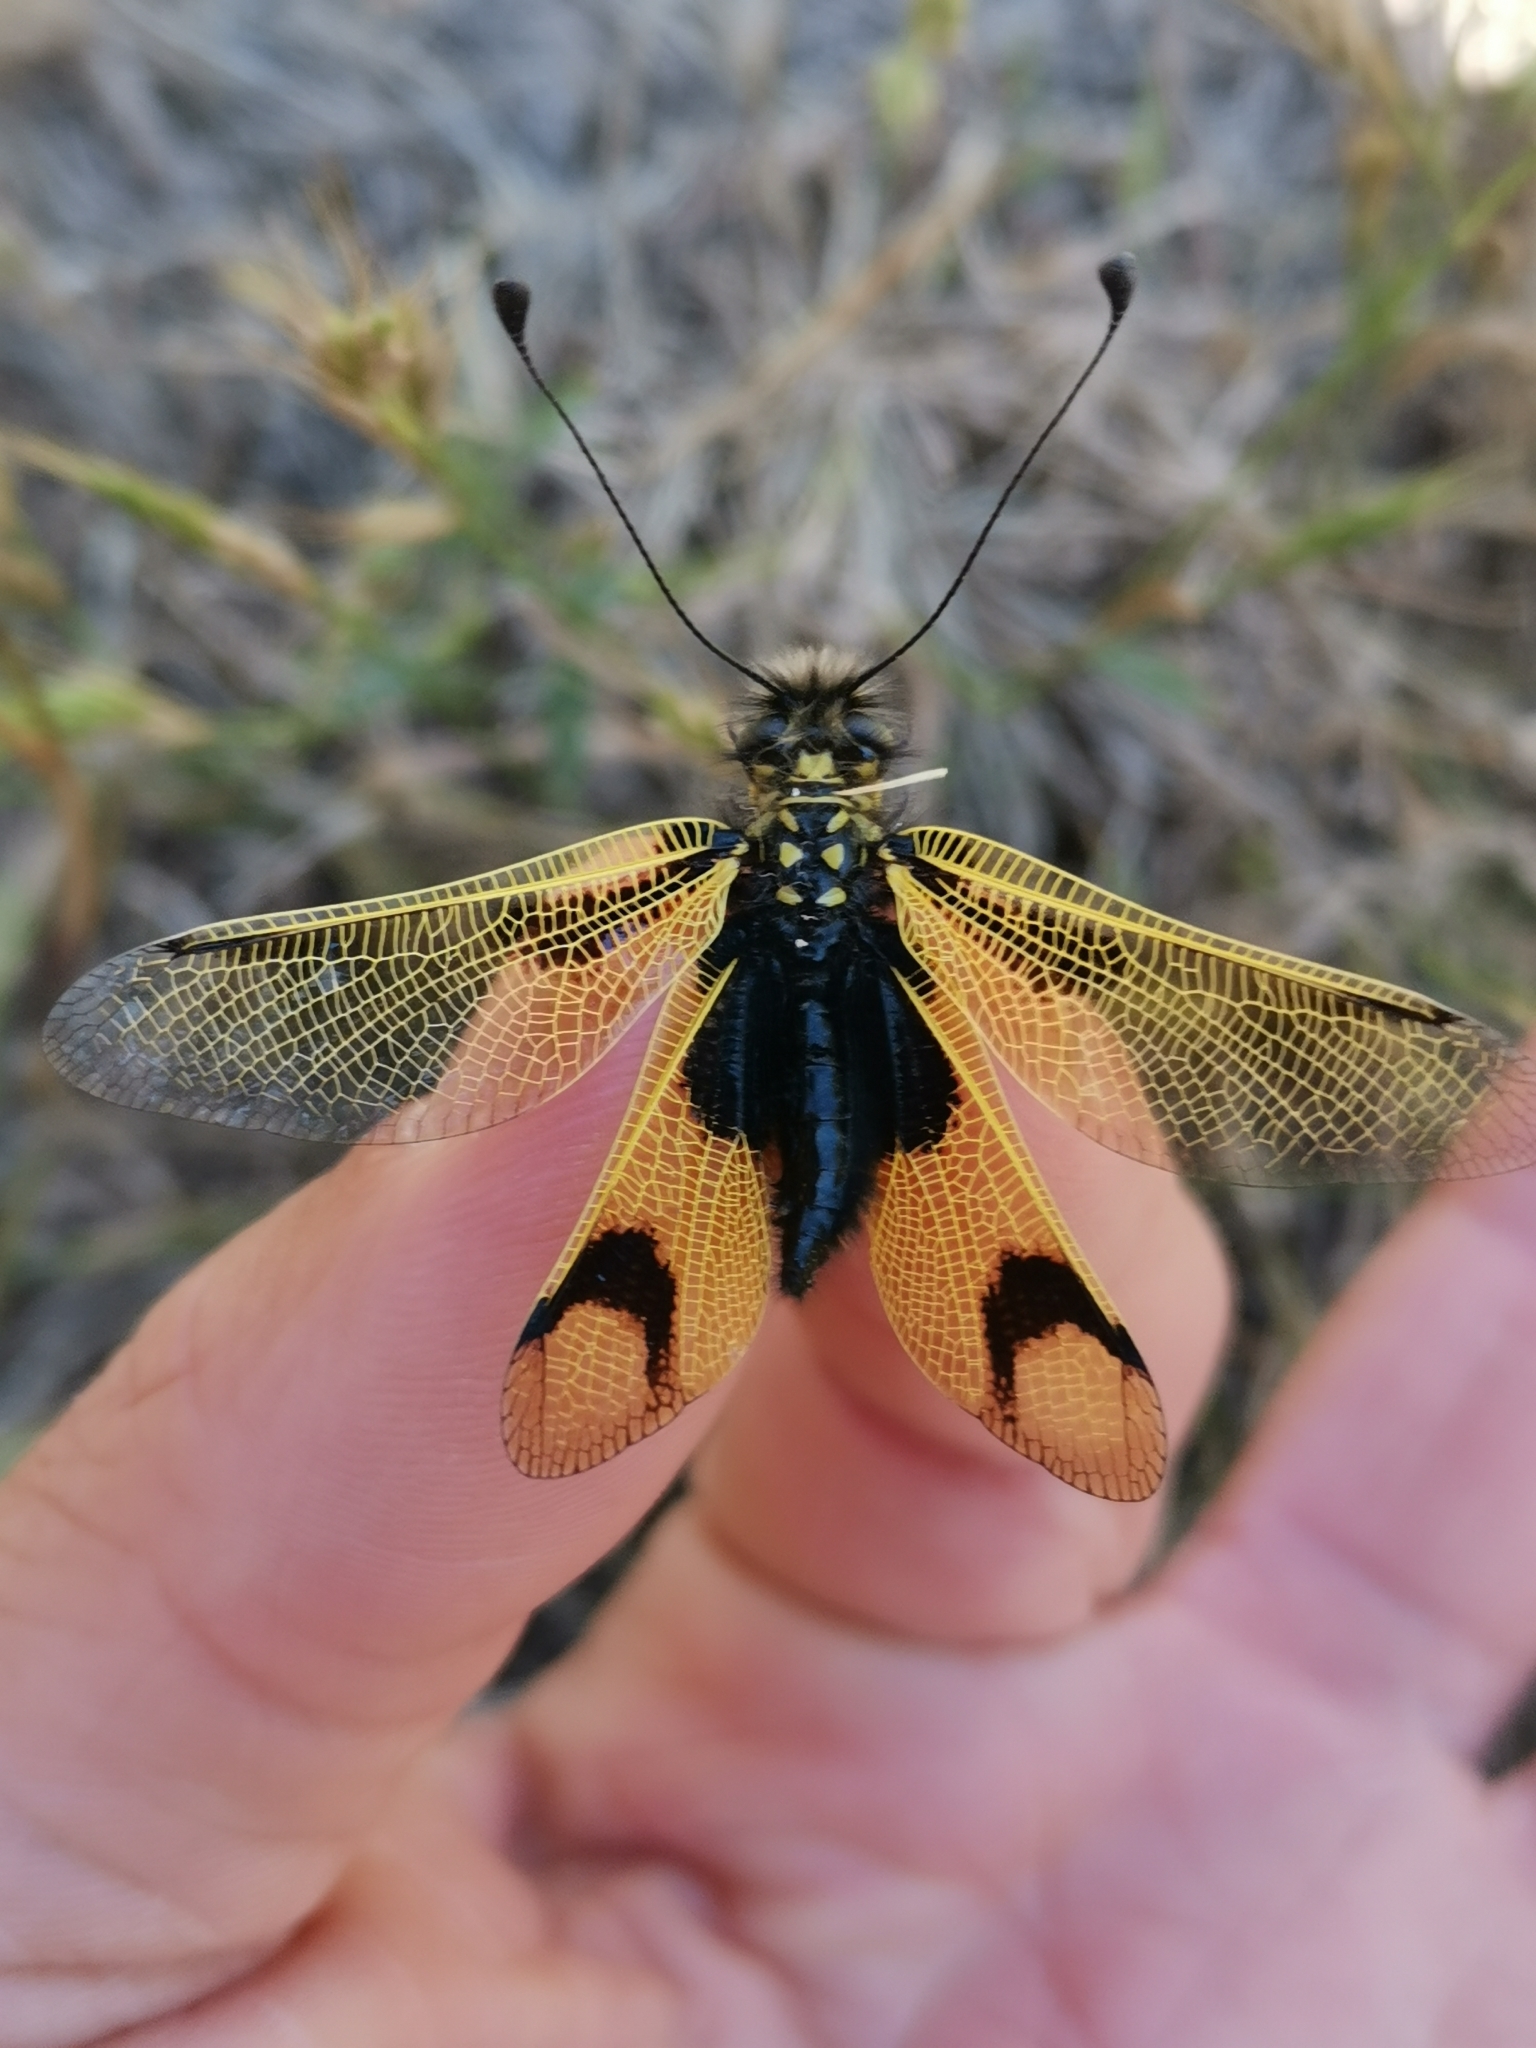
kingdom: Animalia
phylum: Arthropoda
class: Insecta
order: Neuroptera
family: Ascalaphidae
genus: Libelloides
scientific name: Libelloides longicornis
